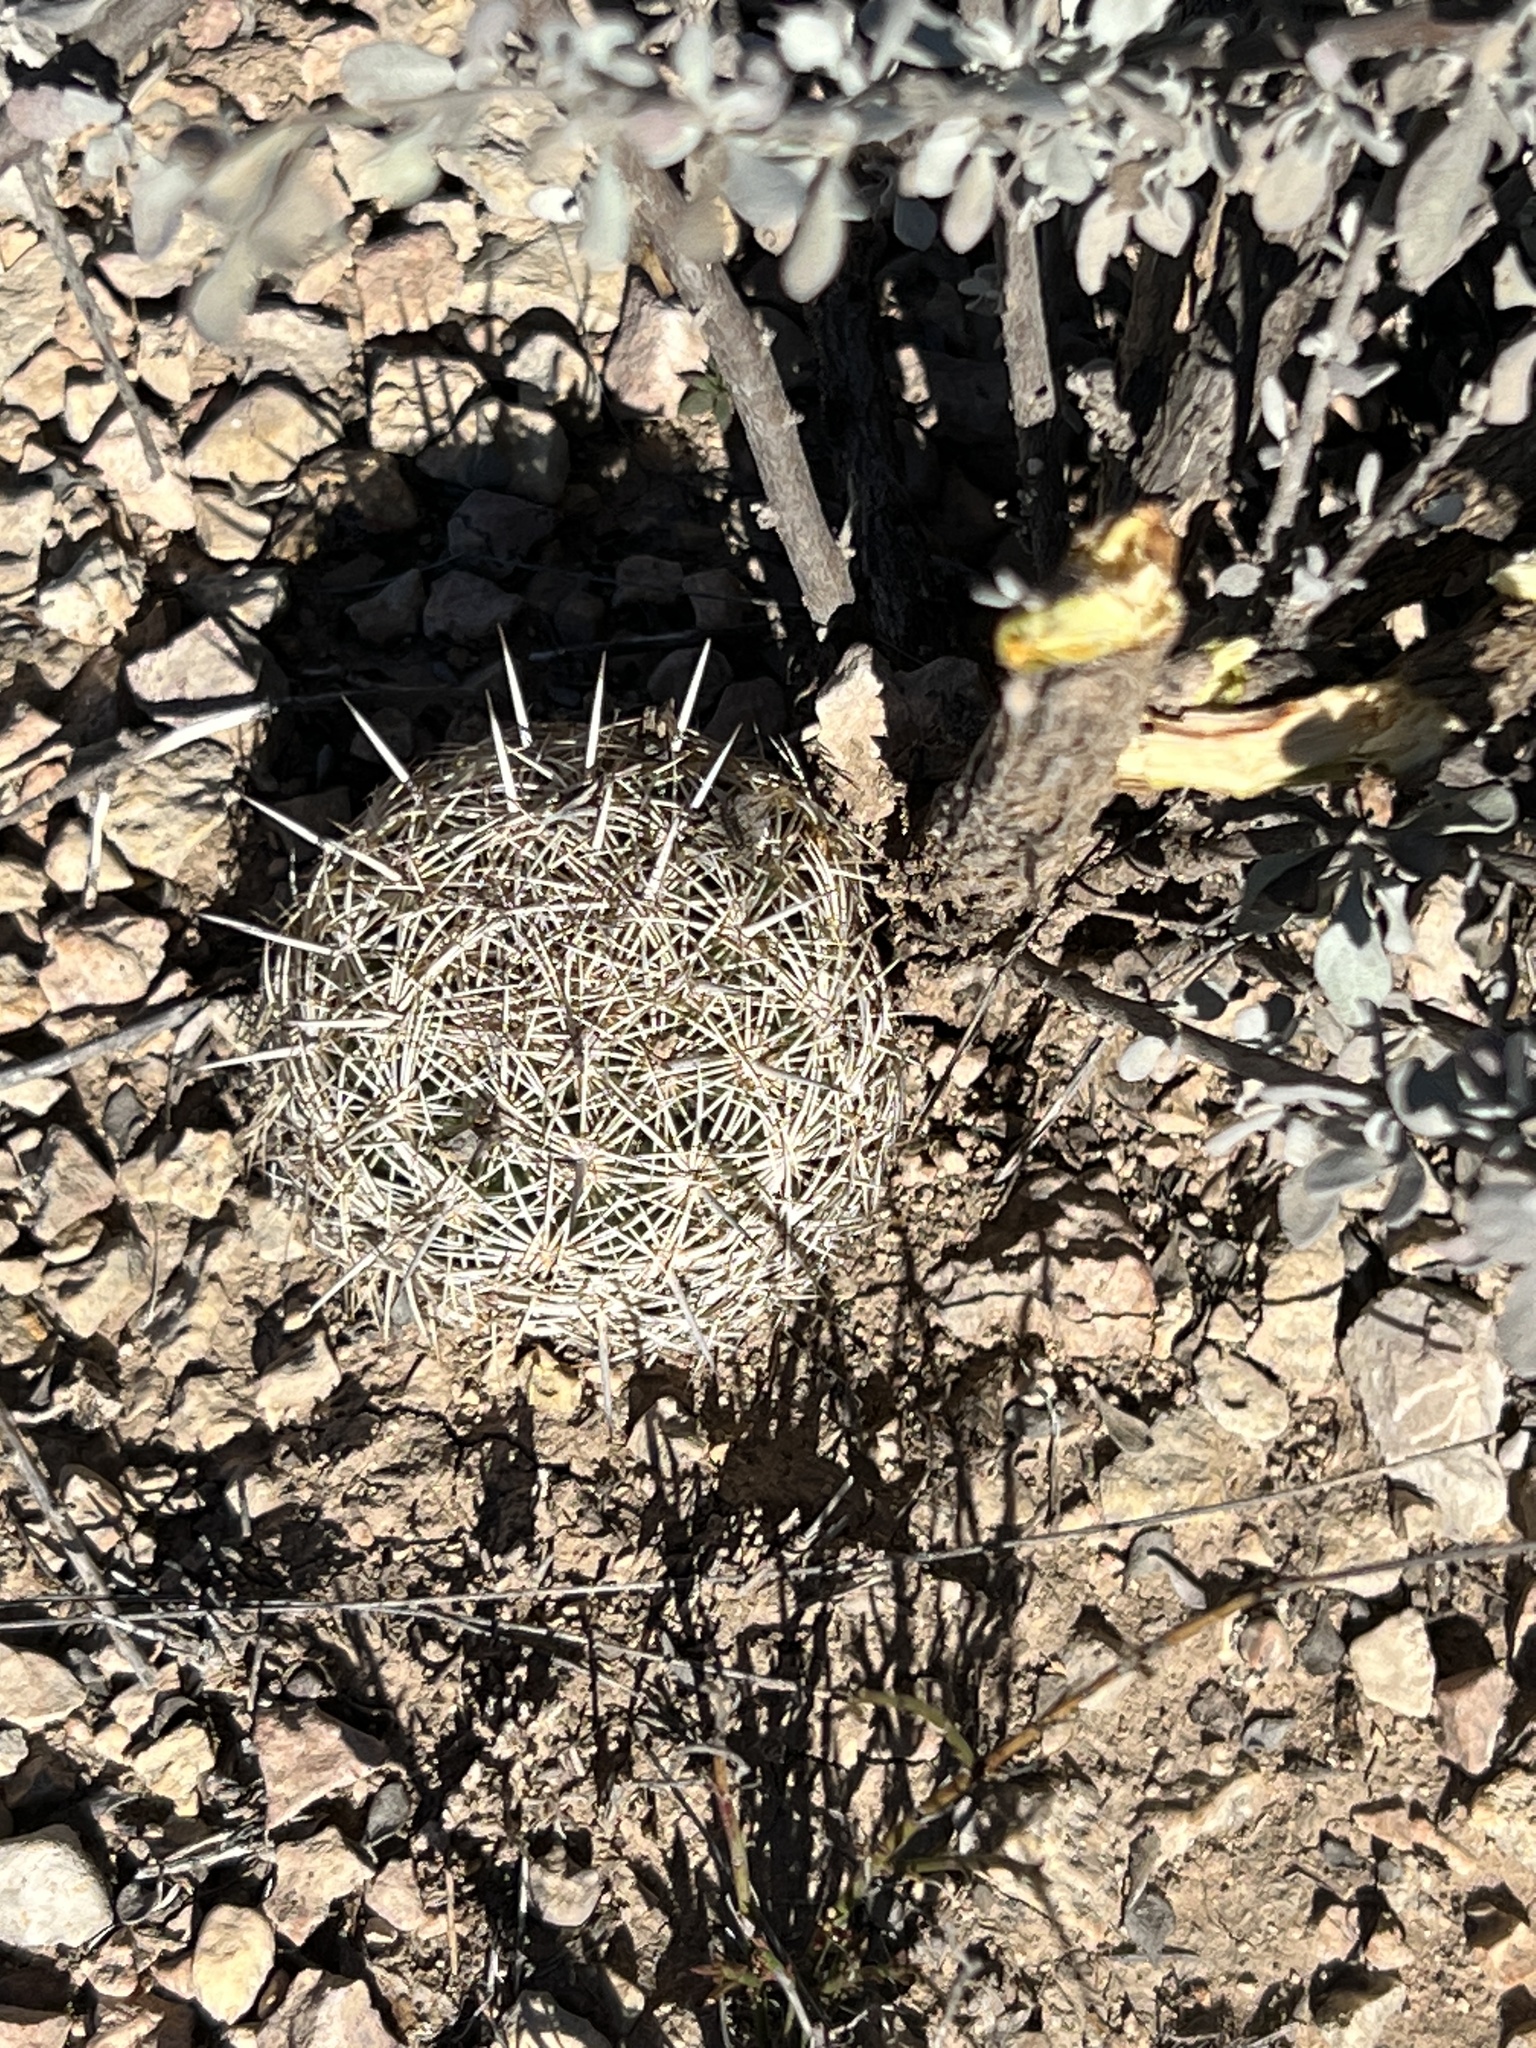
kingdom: Plantae
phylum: Tracheophyta
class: Magnoliopsida
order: Caryophyllales
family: Cactaceae
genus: Coryphantha
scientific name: Coryphantha echinus
